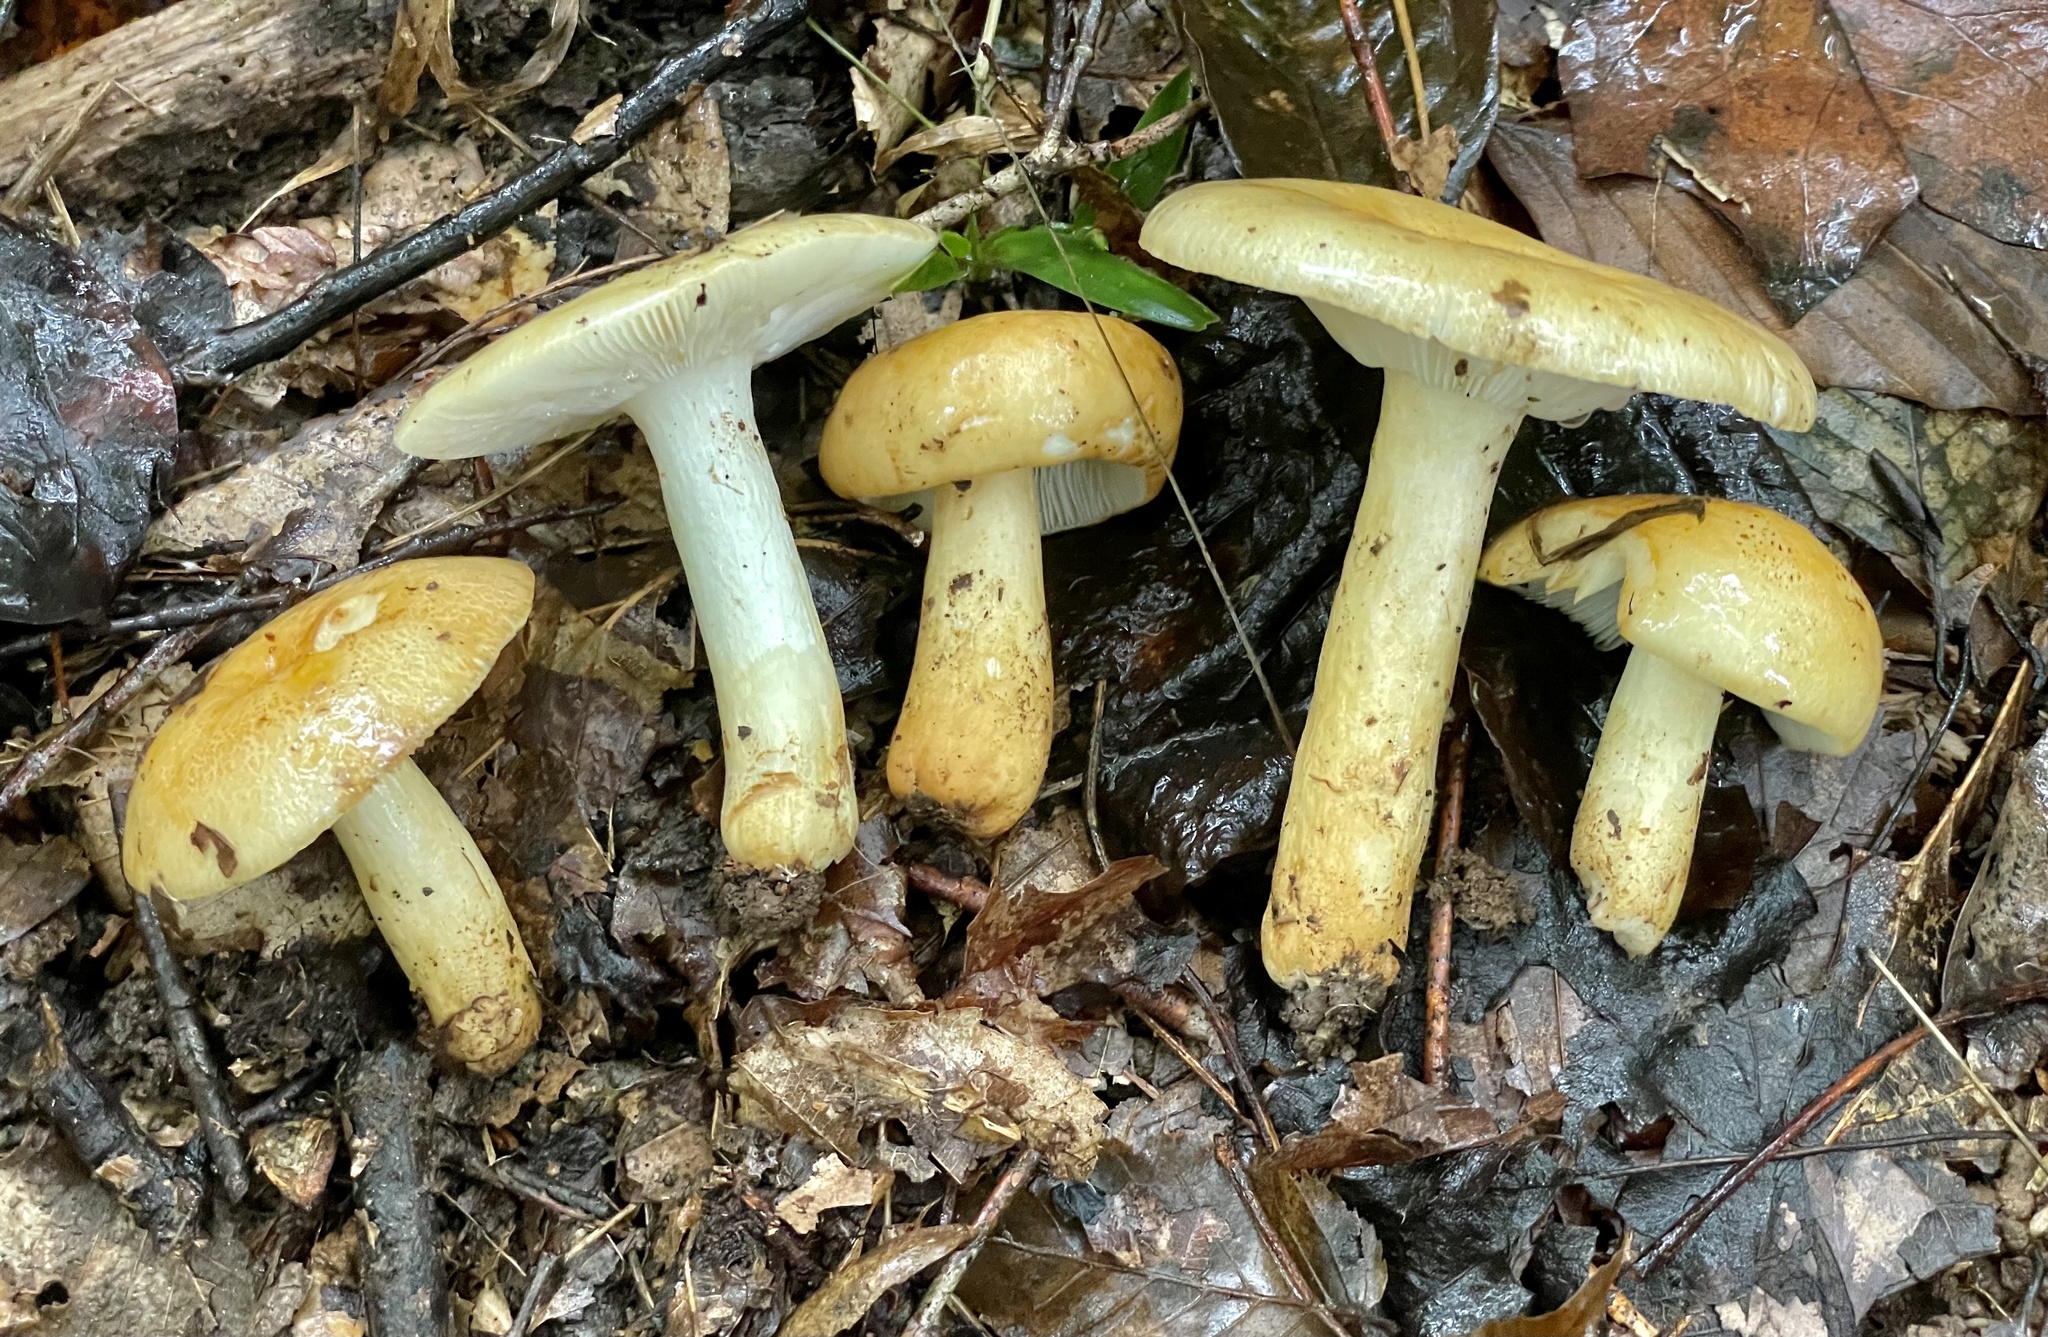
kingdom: Fungi
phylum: Basidiomycota
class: Agaricomycetes
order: Russulales
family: Russulaceae
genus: Russula
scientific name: Russula ballouii
